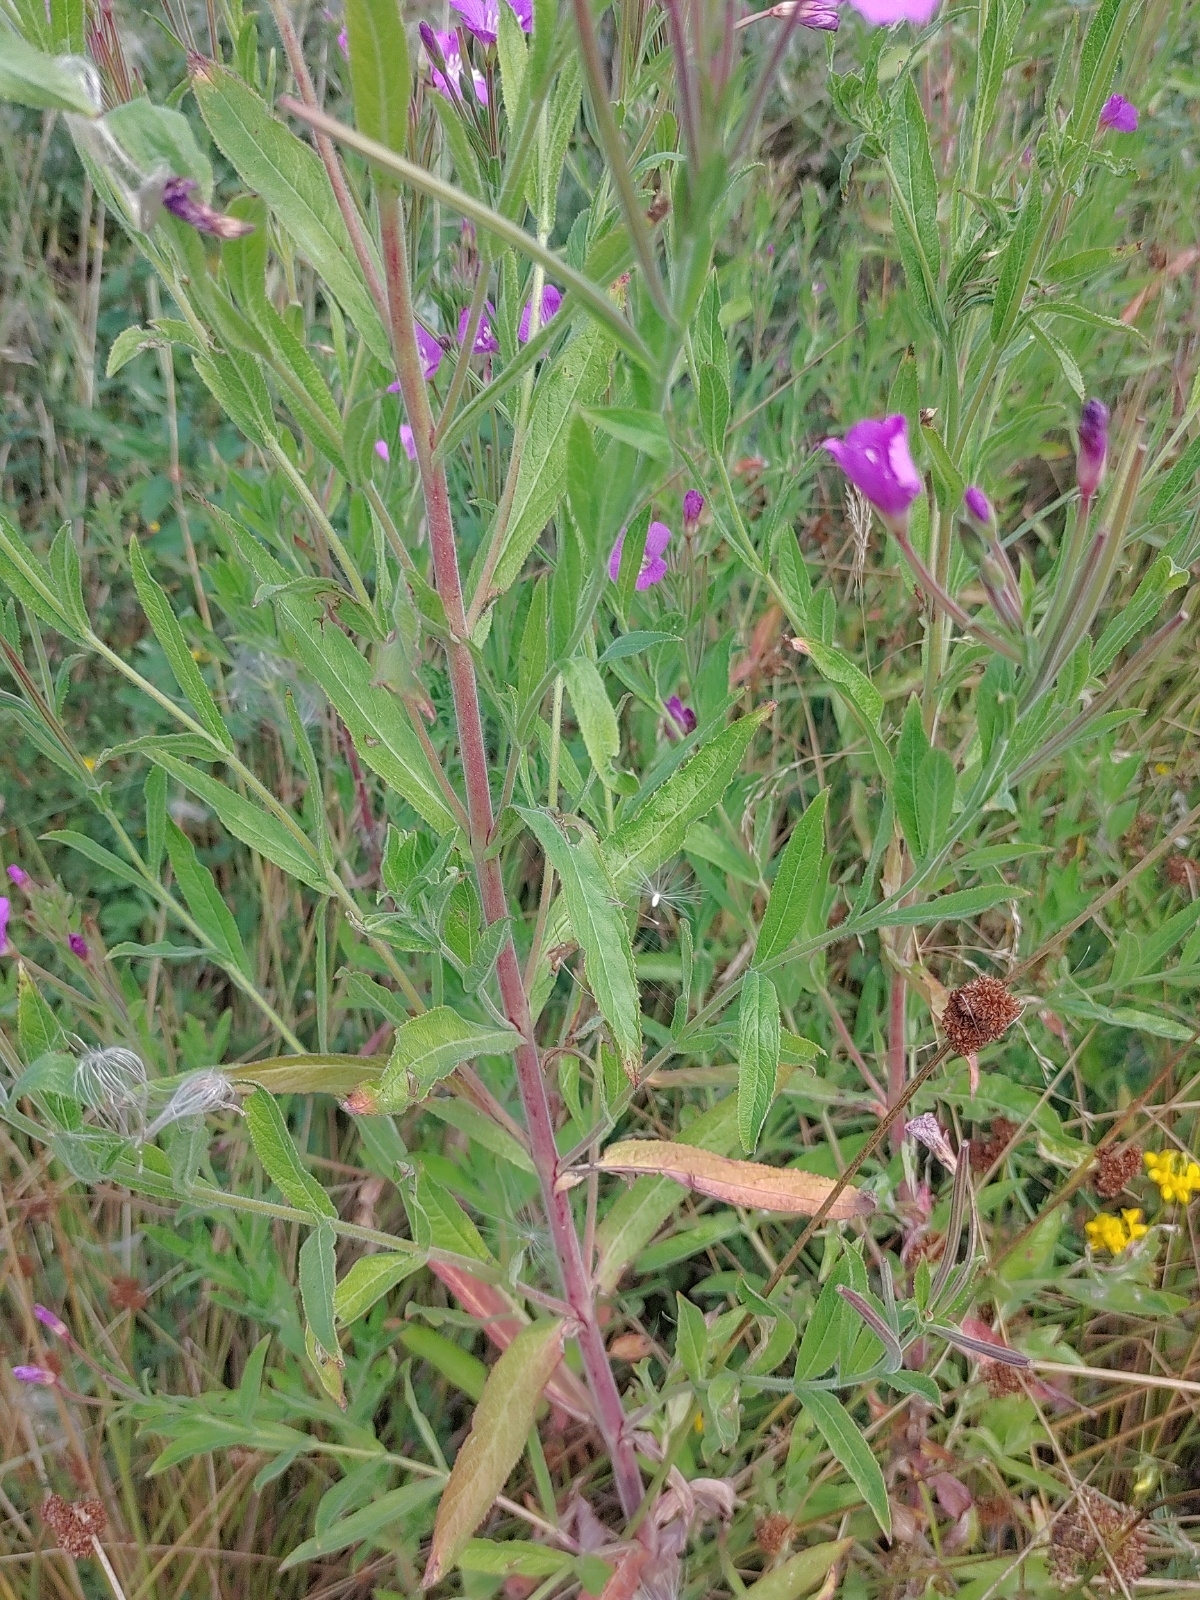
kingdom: Plantae
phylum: Tracheophyta
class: Magnoliopsida
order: Myrtales
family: Onagraceae
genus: Epilobium
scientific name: Epilobium hirsutum
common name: Great willowherb
